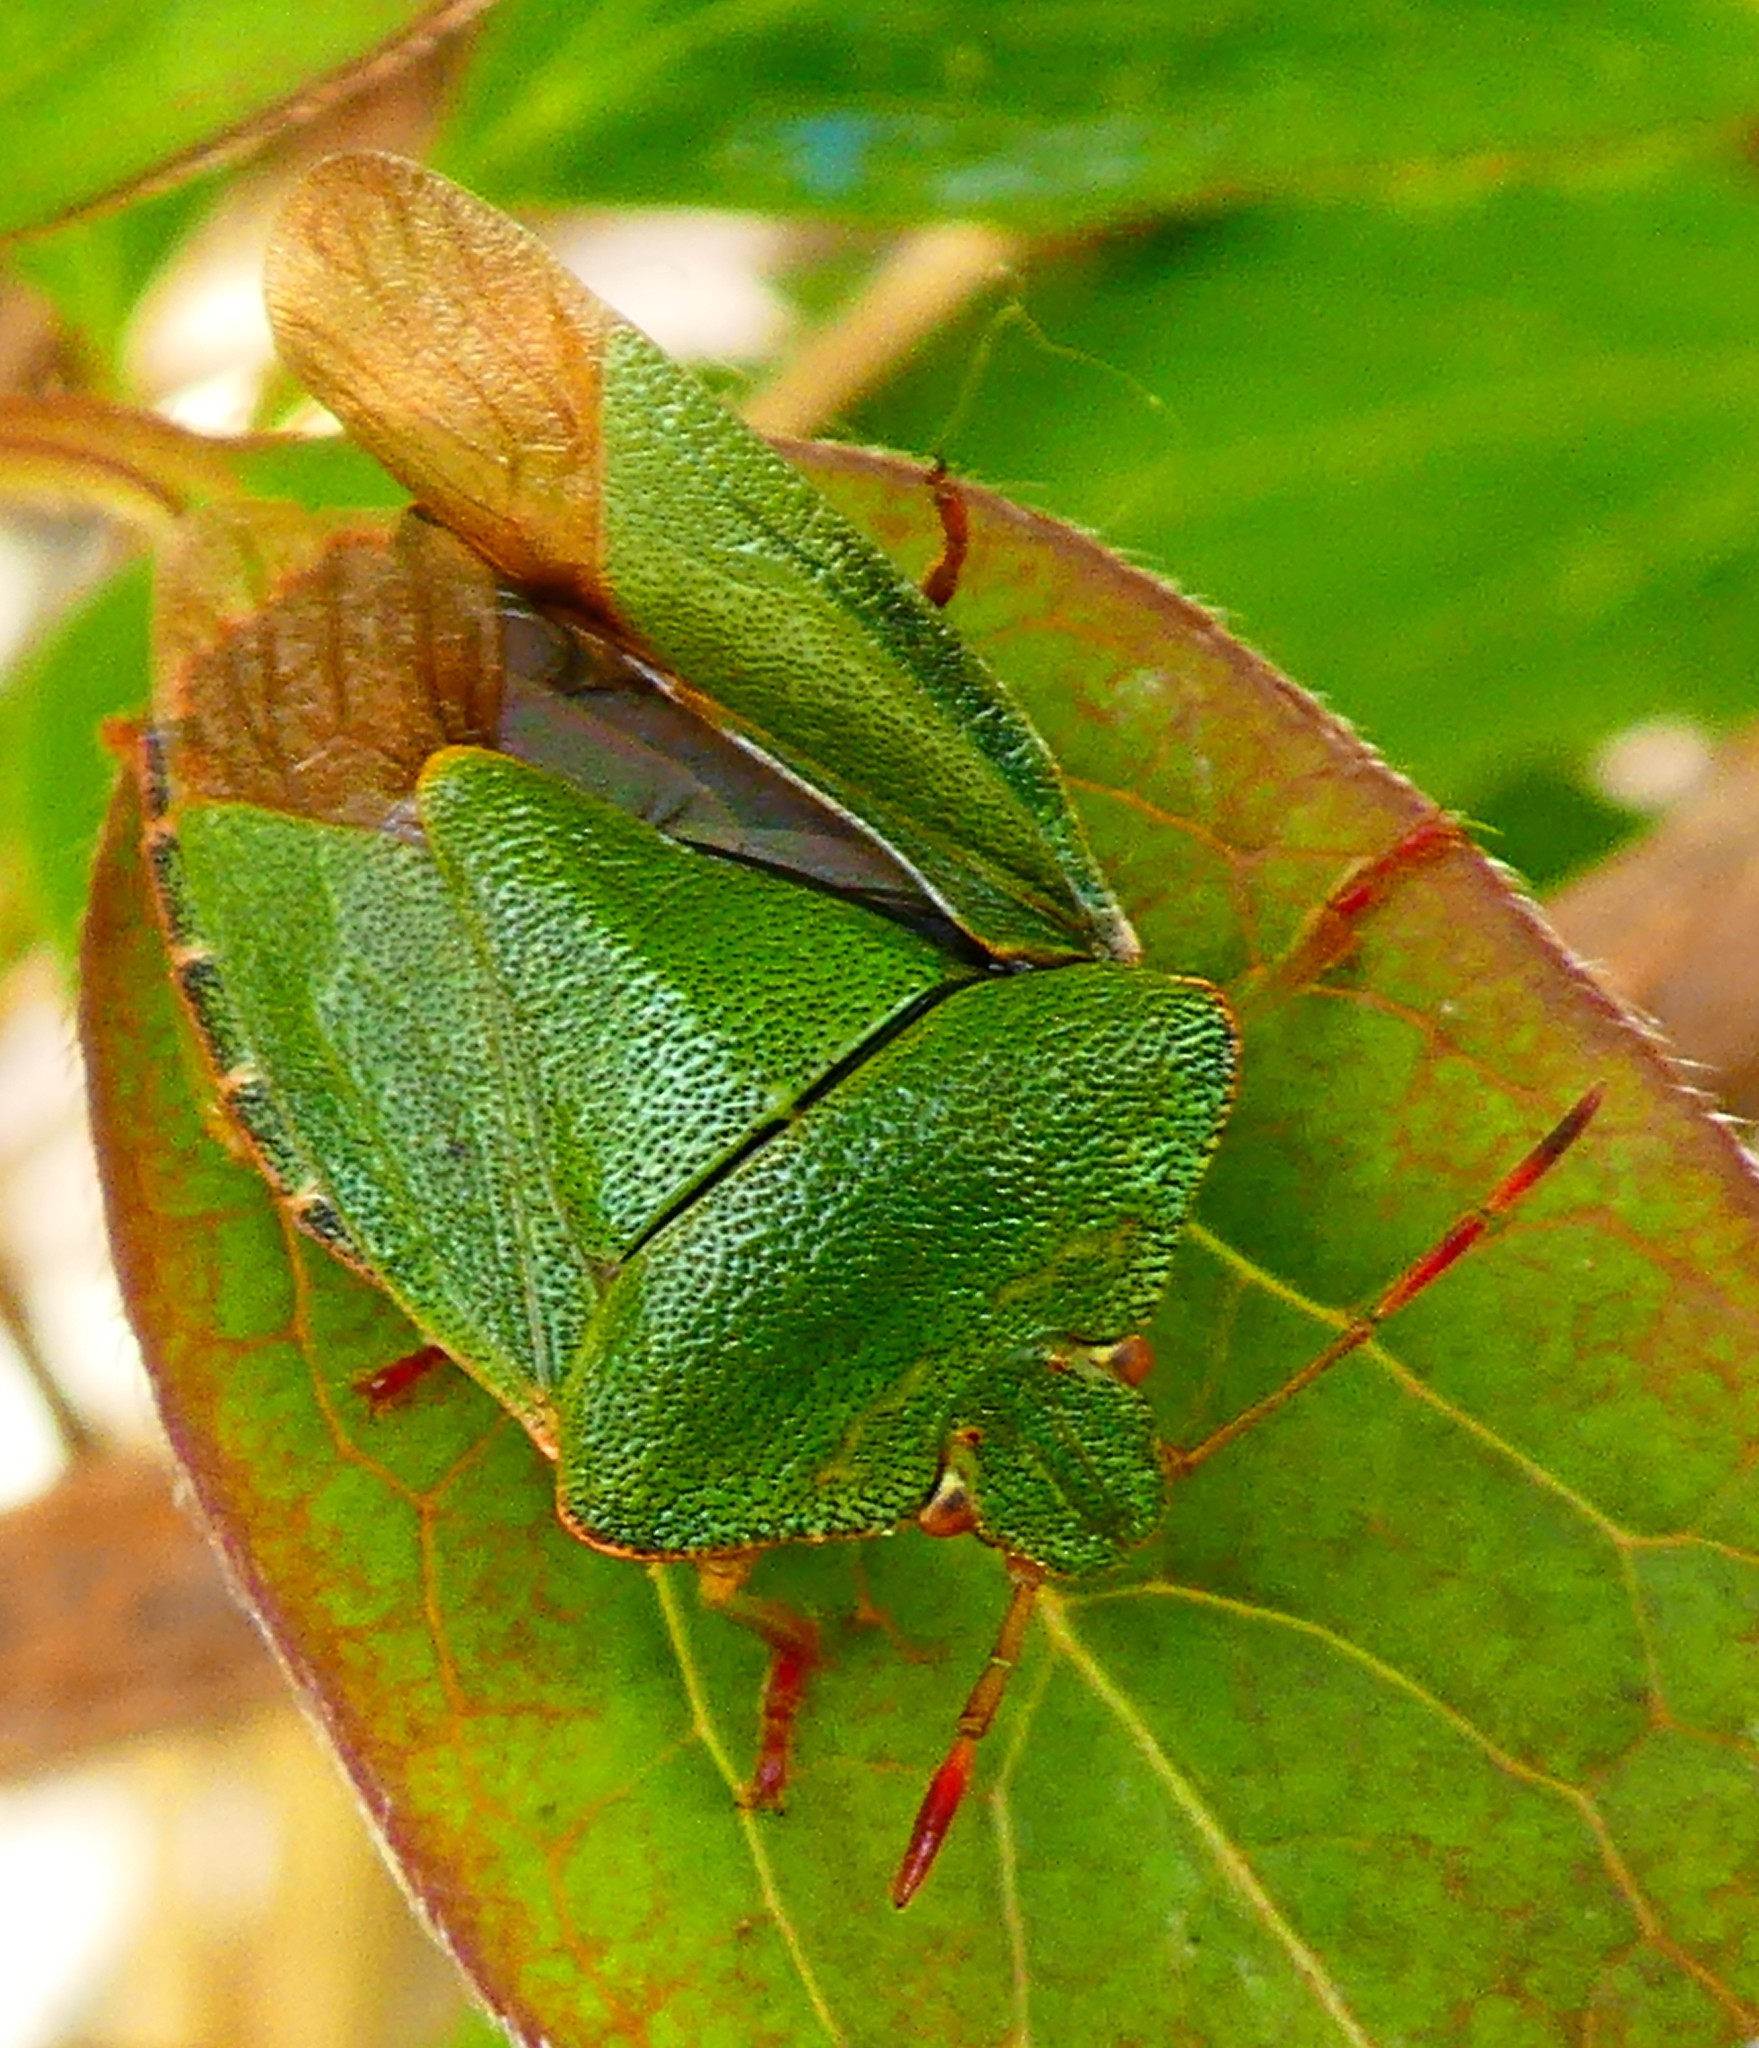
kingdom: Animalia
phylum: Arthropoda
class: Insecta
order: Hemiptera
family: Pentatomidae
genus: Palomena
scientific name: Palomena prasina
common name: Green shieldbug
